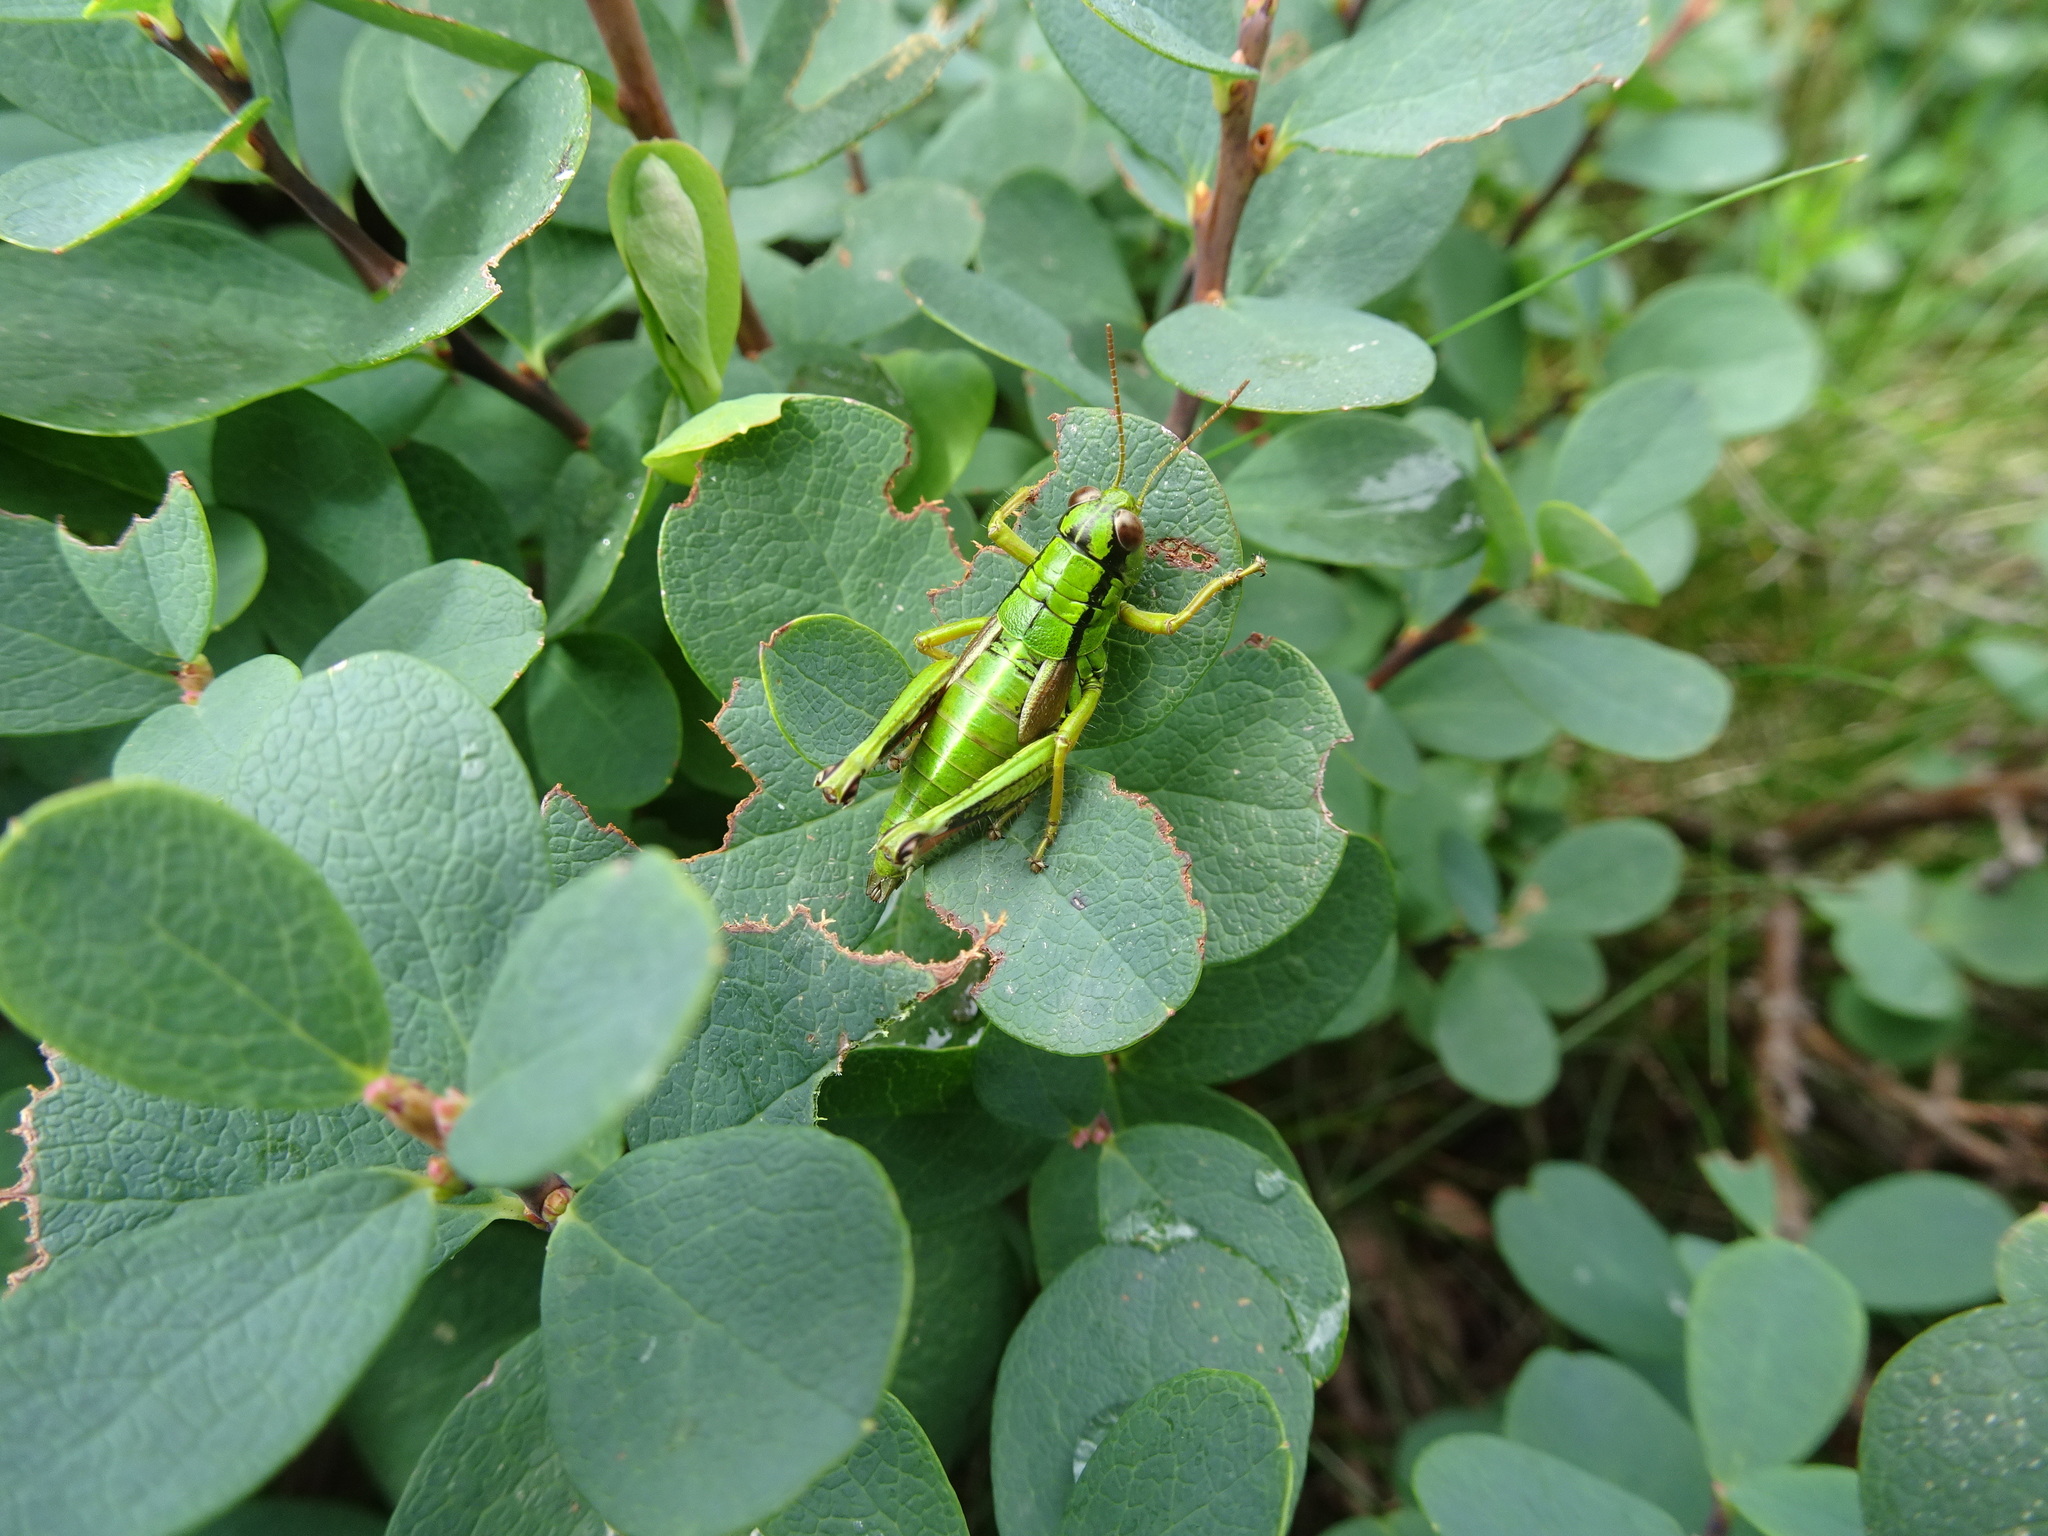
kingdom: Plantae
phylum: Tracheophyta
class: Magnoliopsida
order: Ericales
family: Ericaceae
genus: Vaccinium
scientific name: Vaccinium uliginosum
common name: Bog bilberry
